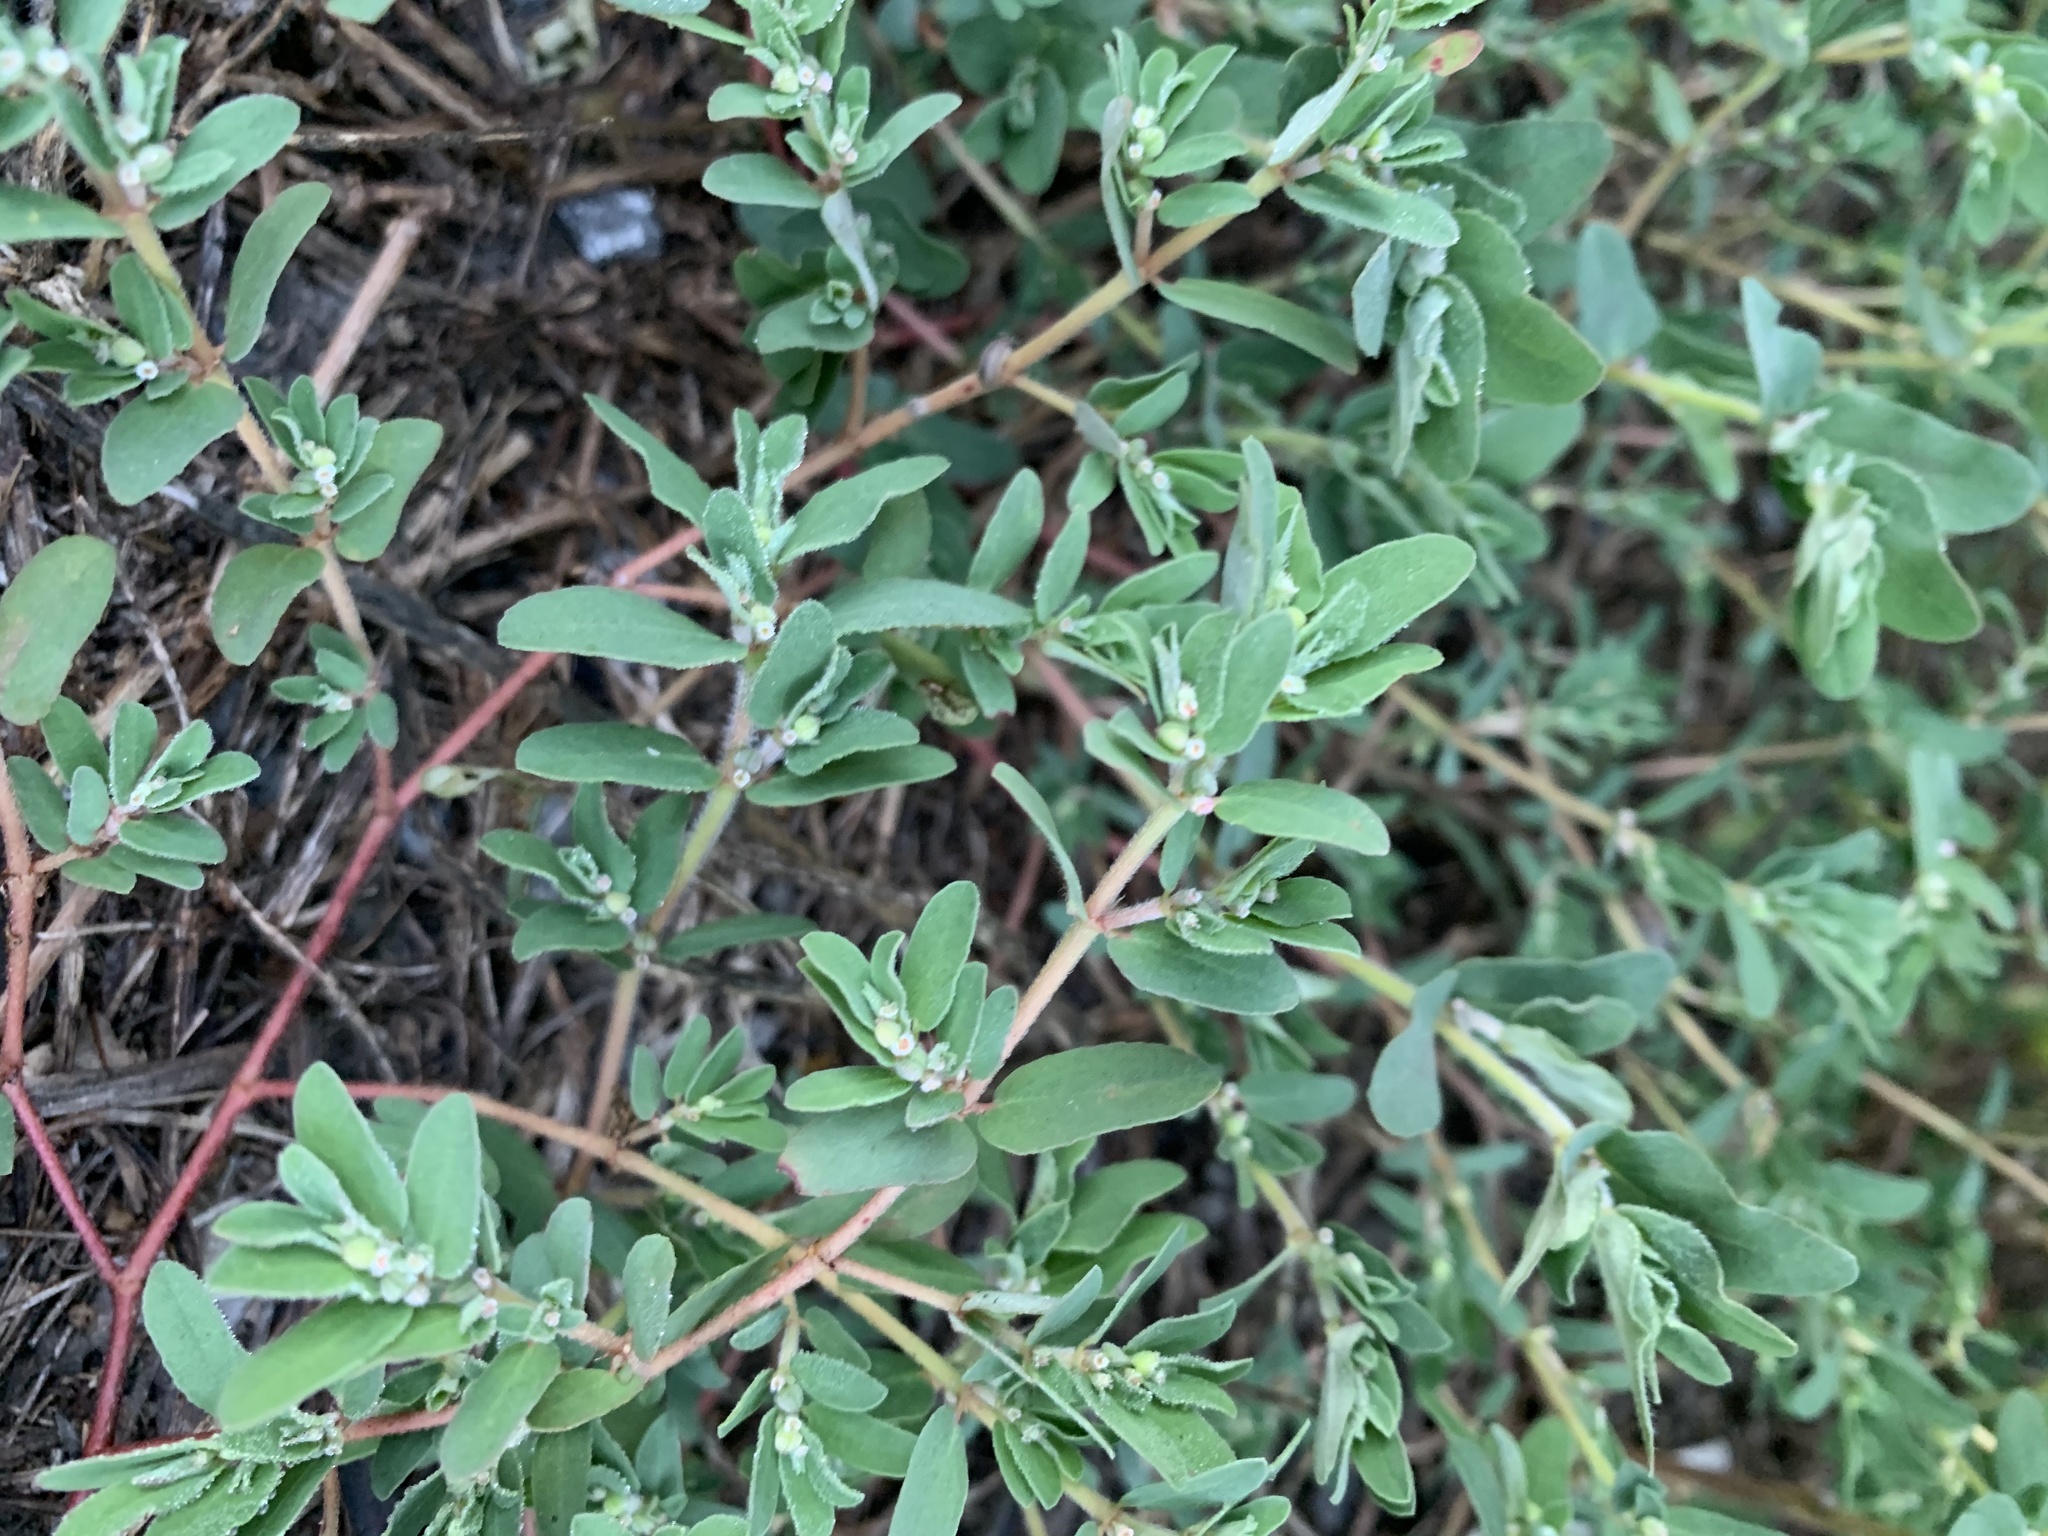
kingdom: Plantae
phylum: Tracheophyta
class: Magnoliopsida
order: Malpighiales
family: Euphorbiaceae
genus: Euphorbia
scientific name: Euphorbia maculata
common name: Spotted spurge
